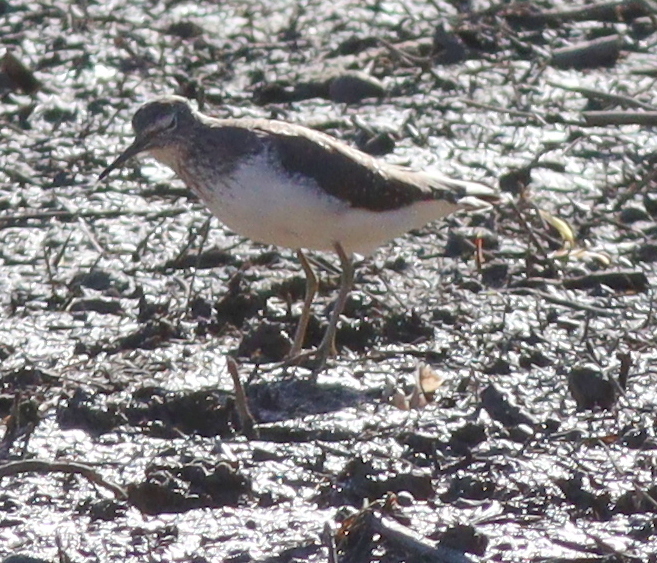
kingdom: Animalia
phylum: Chordata
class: Aves
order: Charadriiformes
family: Scolopacidae
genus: Tringa
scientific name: Tringa ochropus
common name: Green sandpiper
